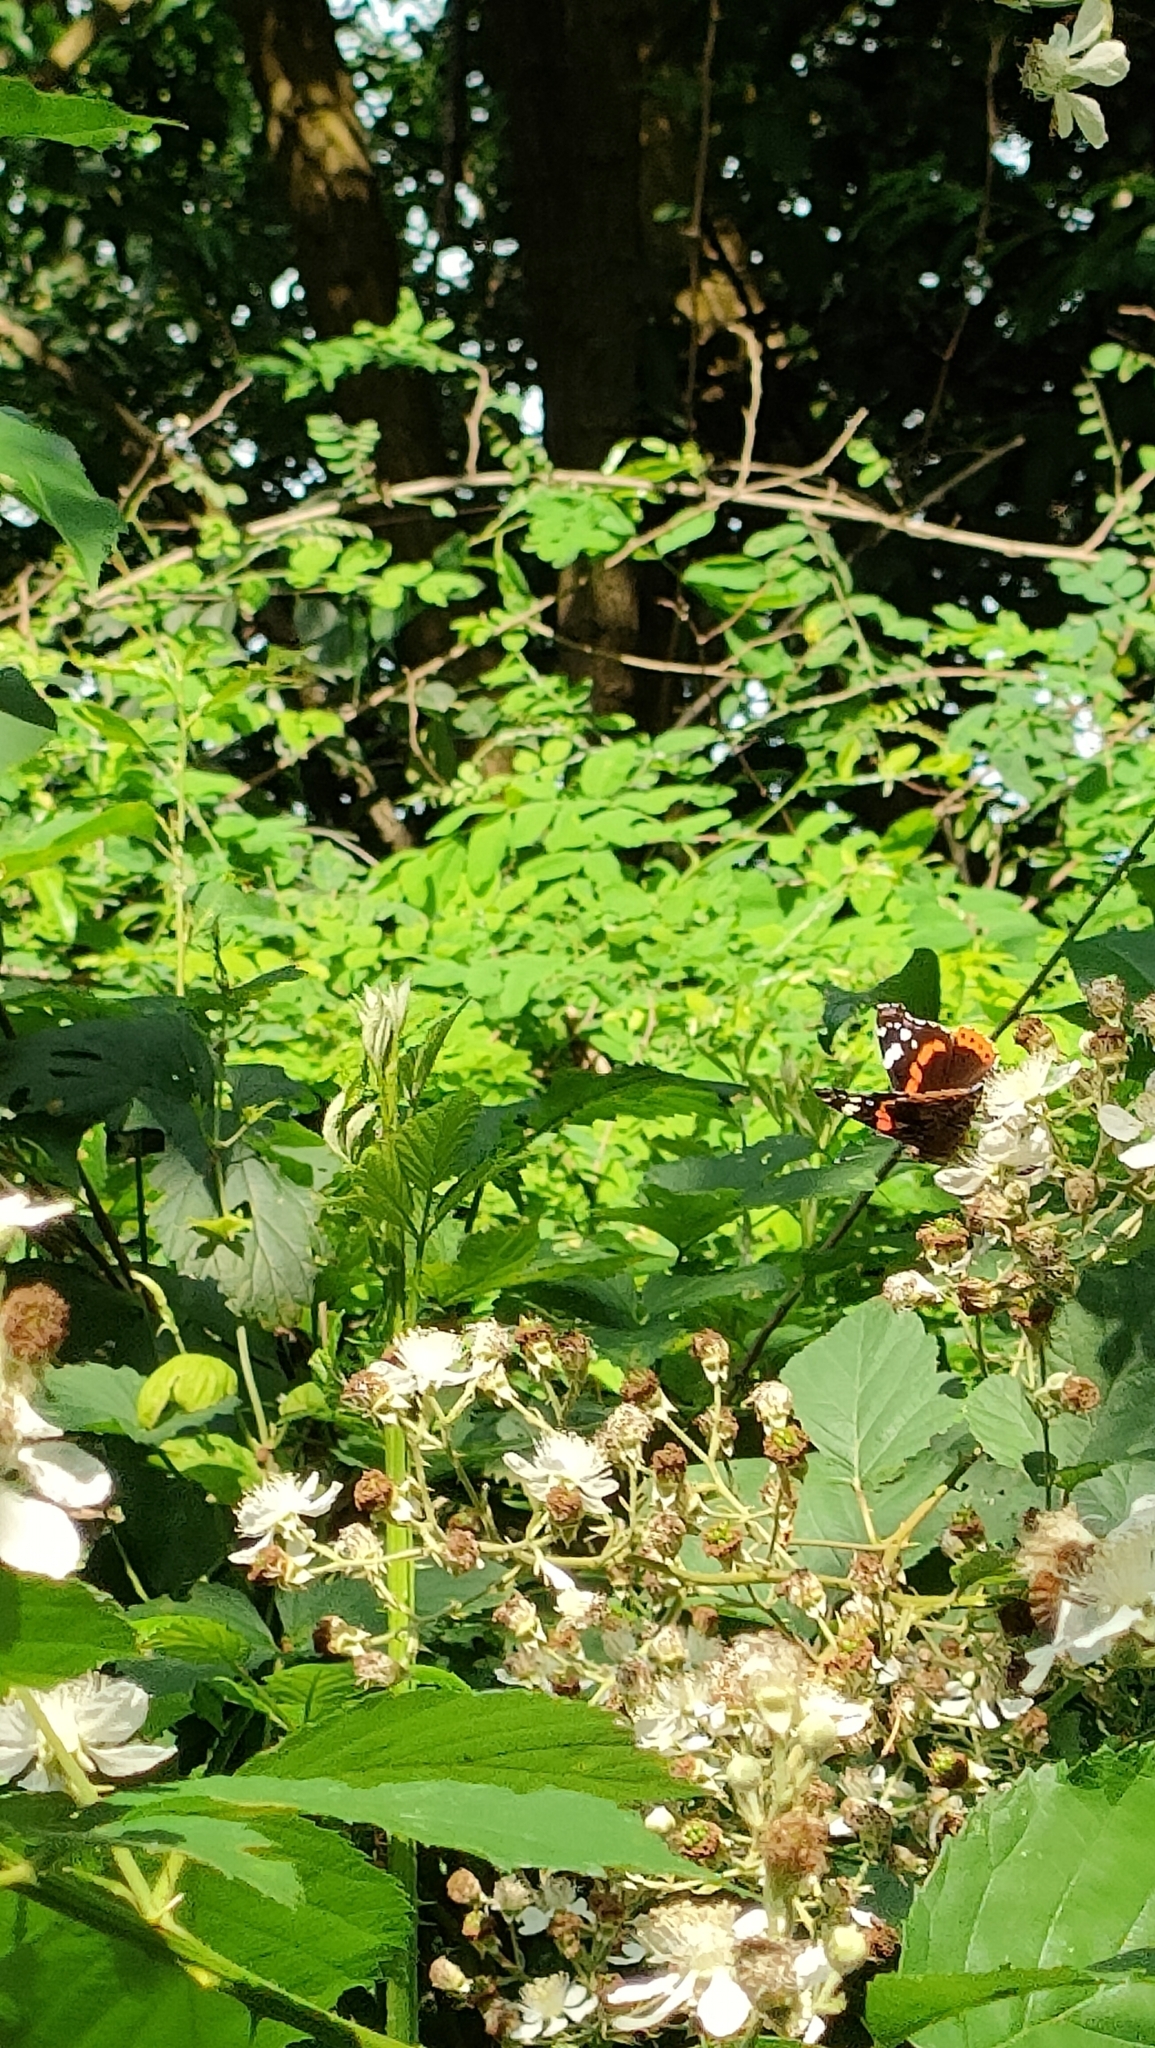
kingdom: Animalia
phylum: Arthropoda
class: Insecta
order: Lepidoptera
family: Nymphalidae
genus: Vanessa
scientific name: Vanessa atalanta
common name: Red admiral
